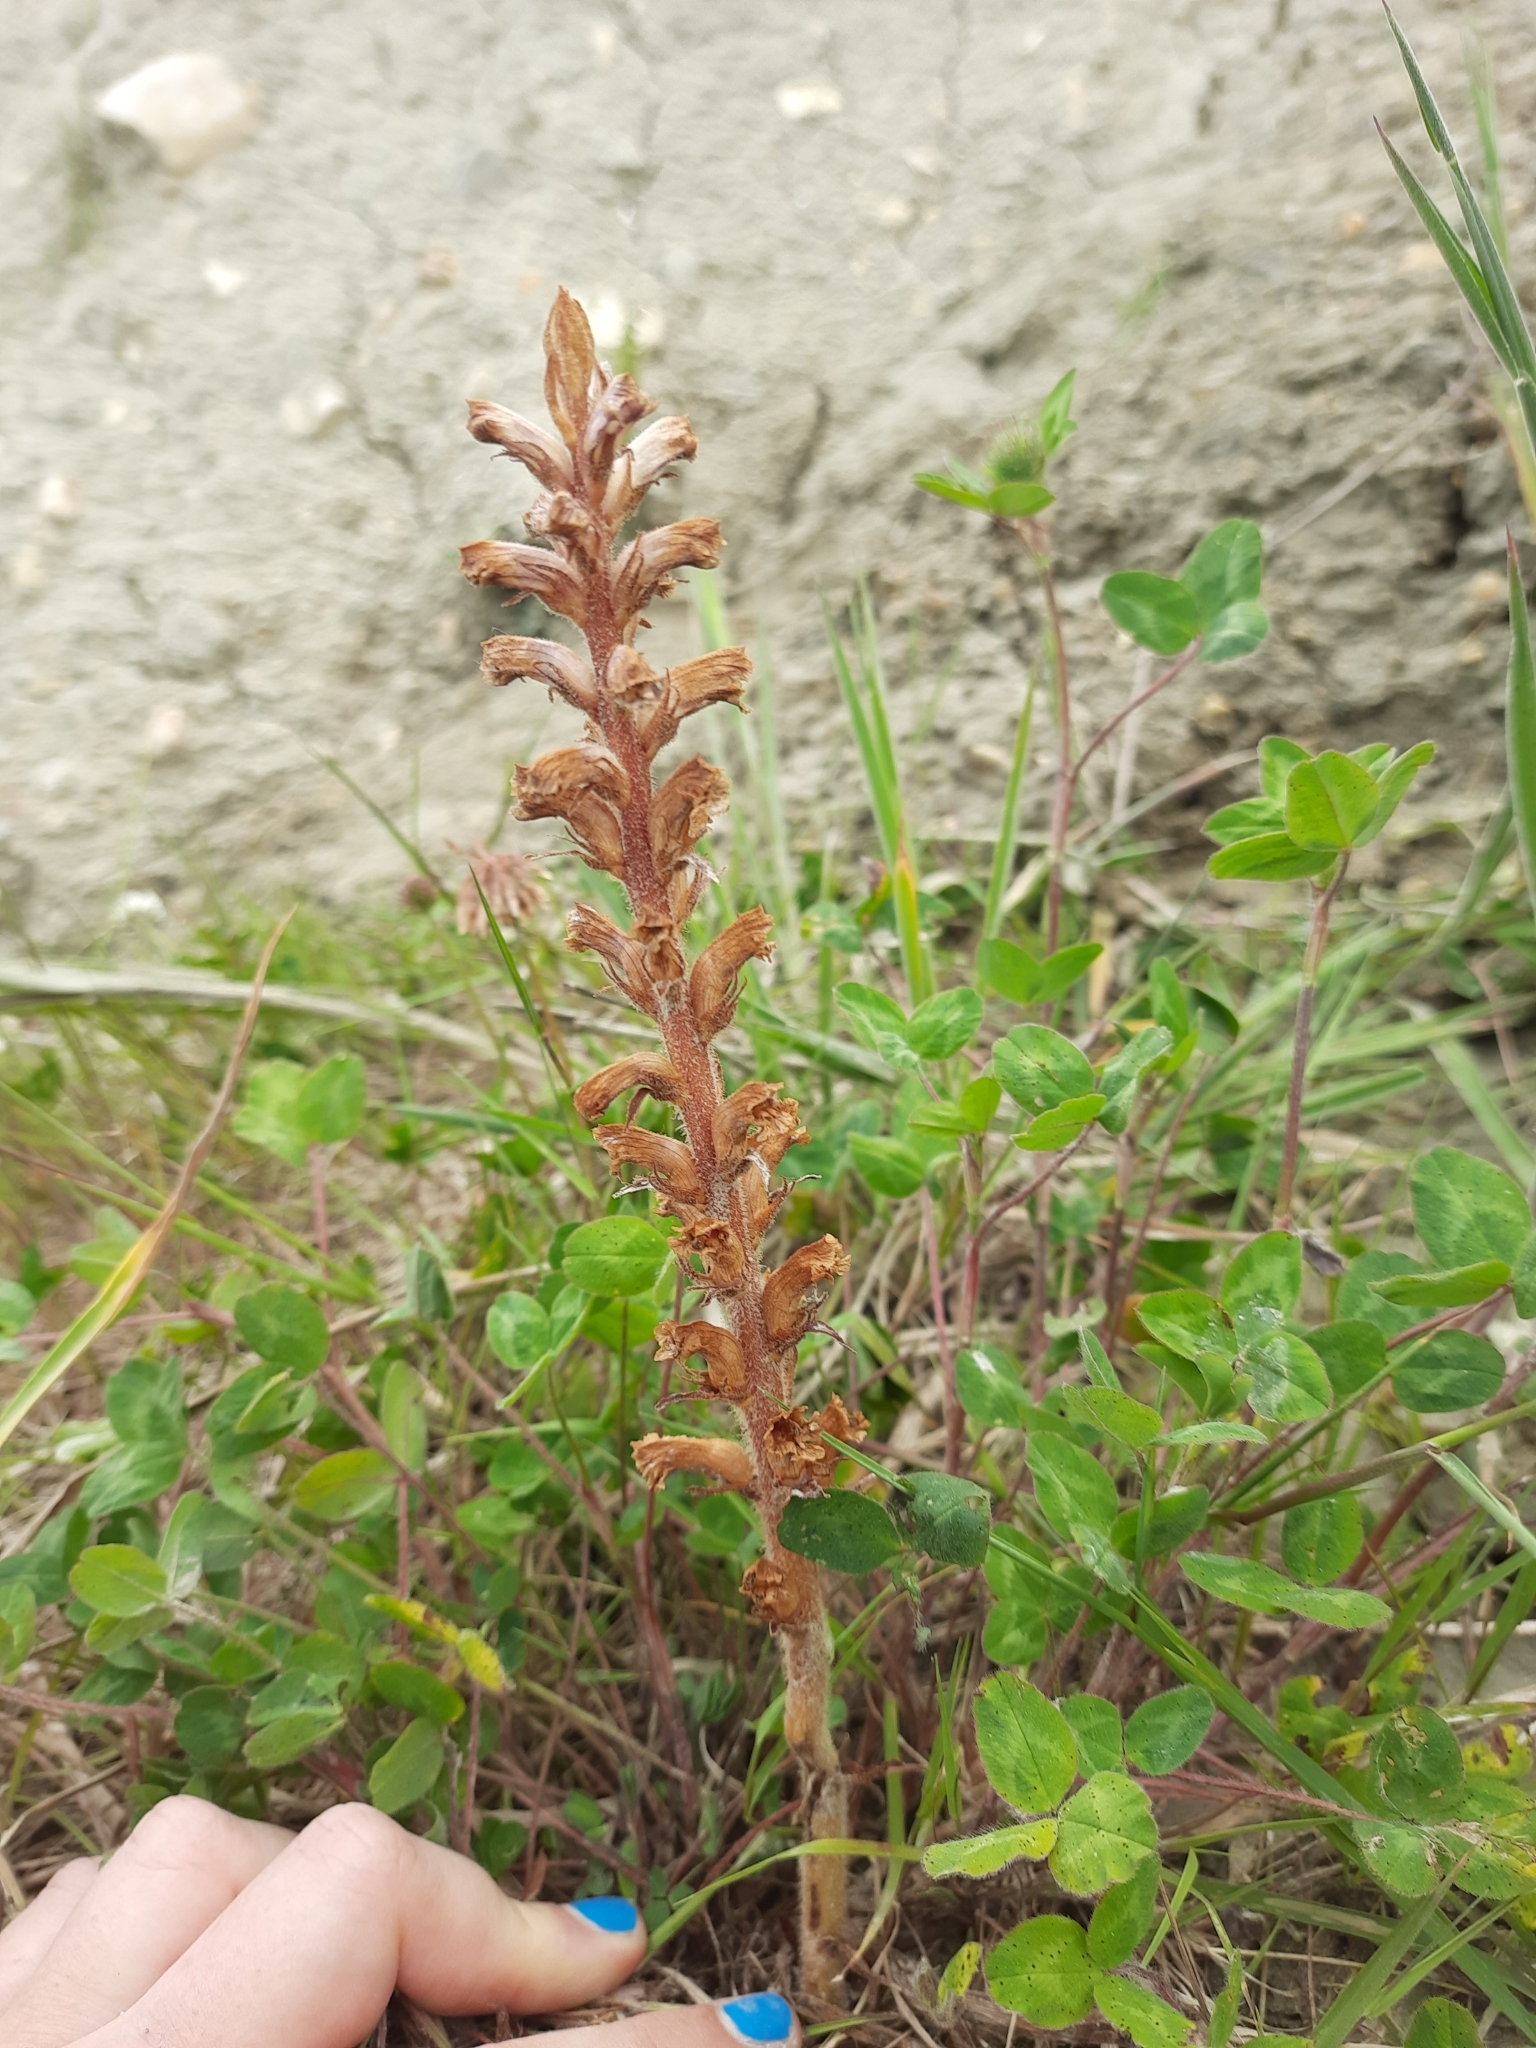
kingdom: Plantae
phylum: Tracheophyta
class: Magnoliopsida
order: Lamiales
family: Orobanchaceae
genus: Orobanche
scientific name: Orobanche minor
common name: Common broomrape
